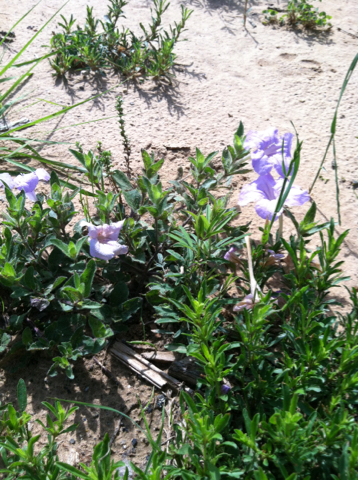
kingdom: Plantae
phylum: Tracheophyta
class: Magnoliopsida
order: Lamiales
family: Acanthaceae
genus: Ruellia
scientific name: Ruellia humilis
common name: Fringe-leaf ruellia
